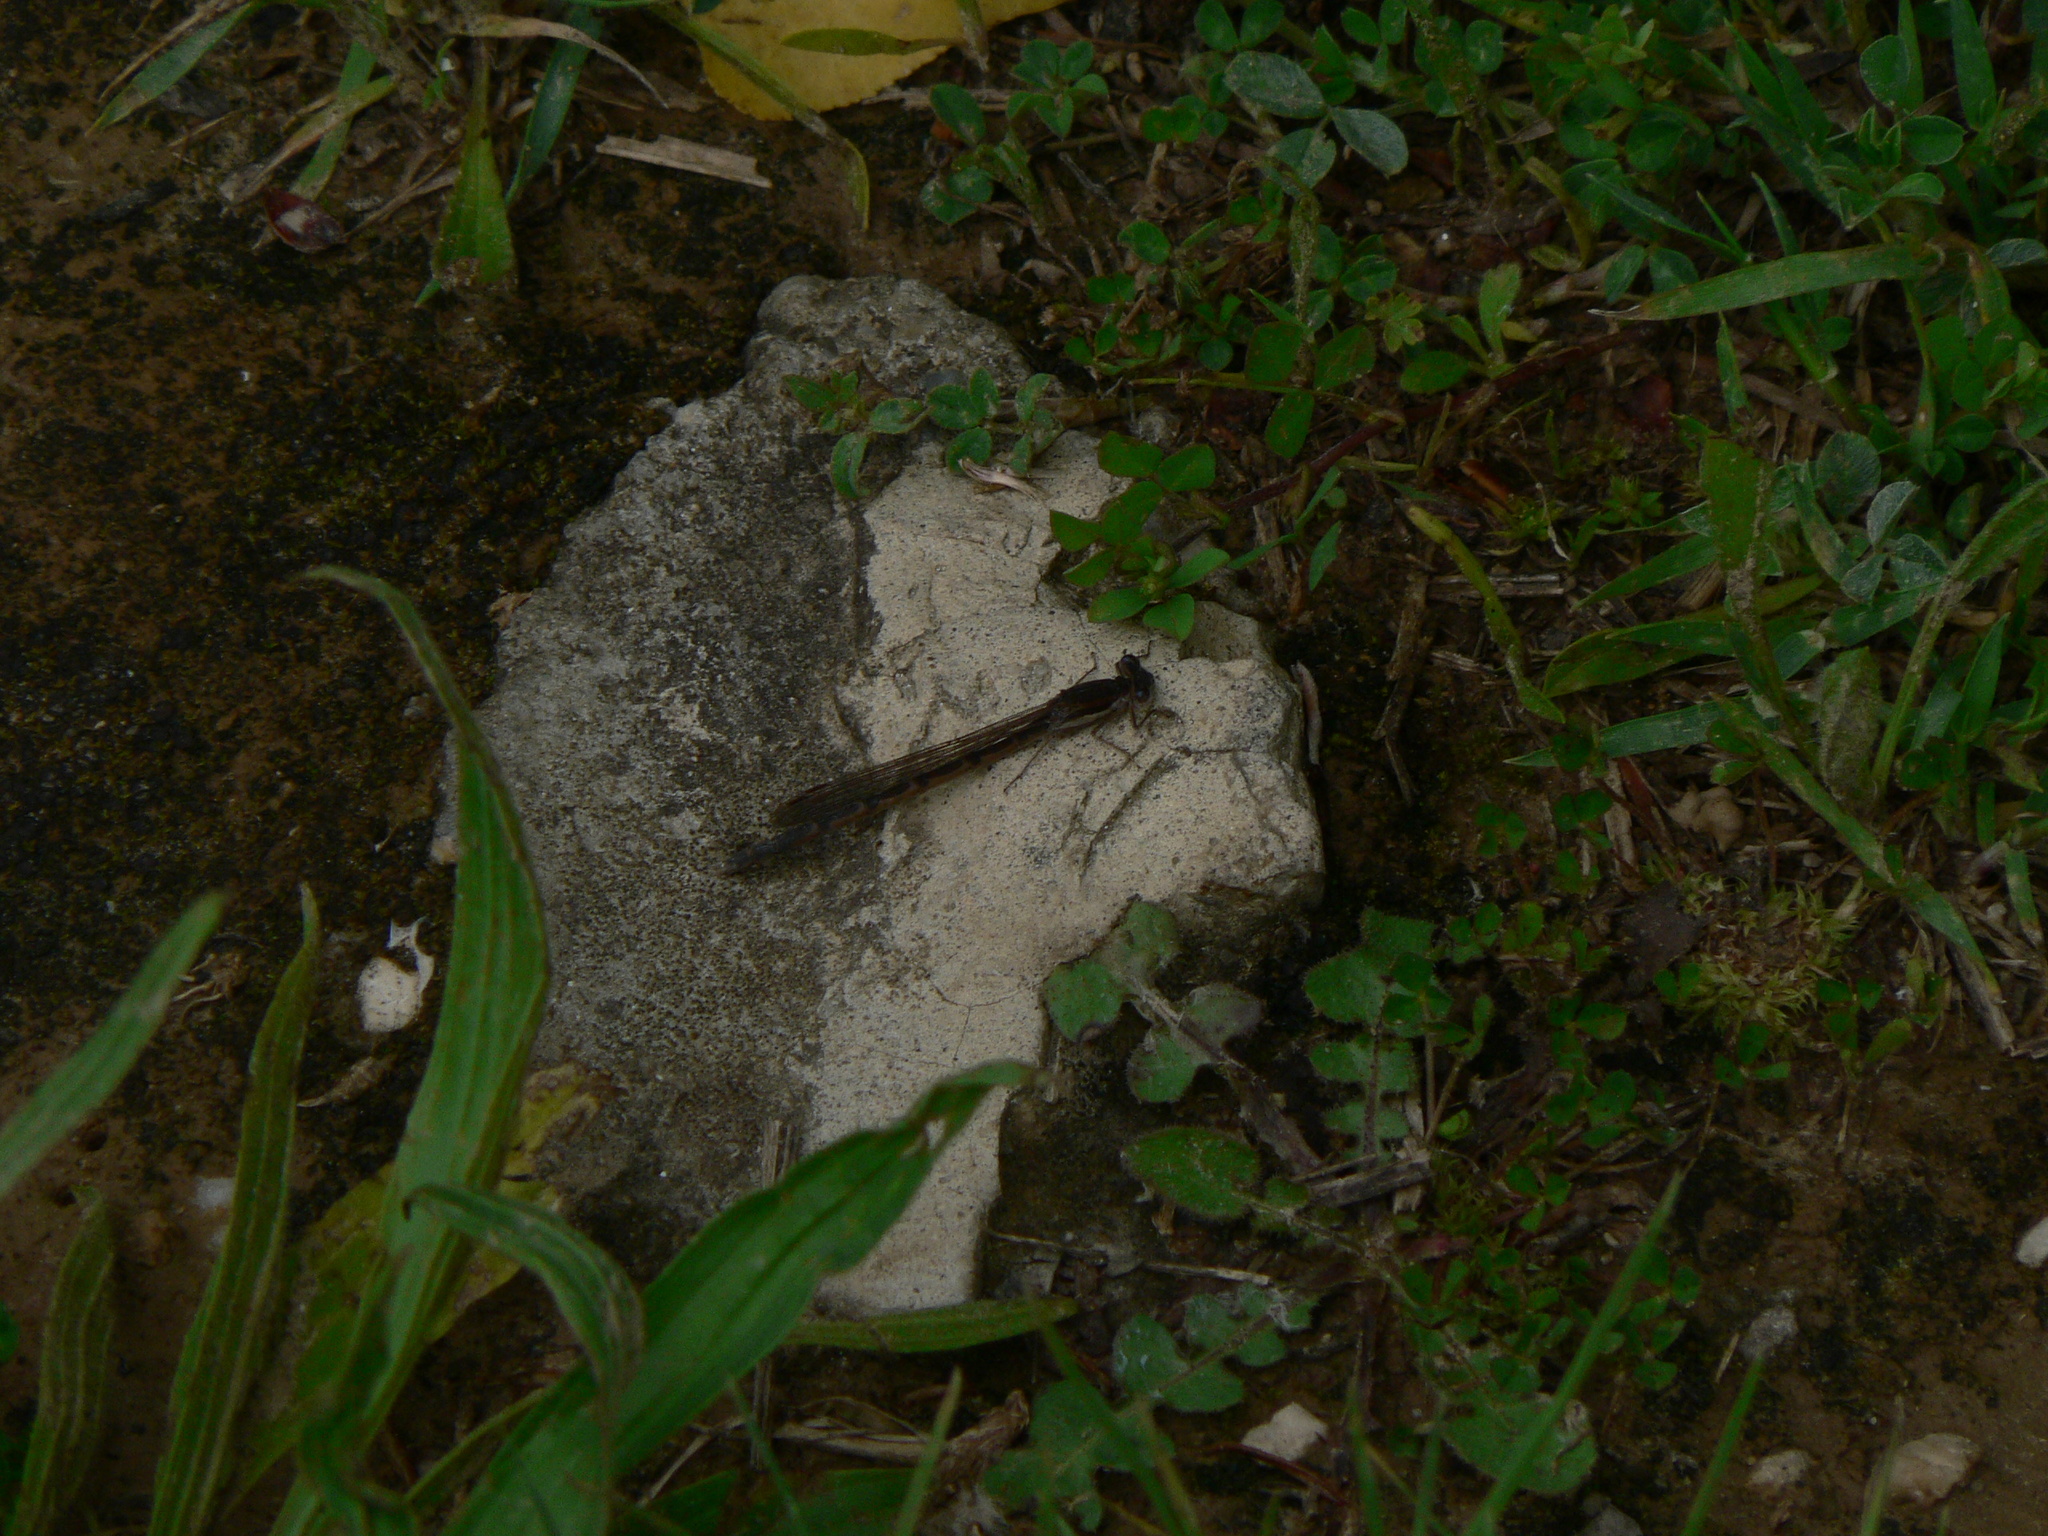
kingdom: Animalia
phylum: Arthropoda
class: Insecta
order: Odonata
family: Lestidae
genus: Sympecma
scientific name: Sympecma fusca
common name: Common winter damsel
